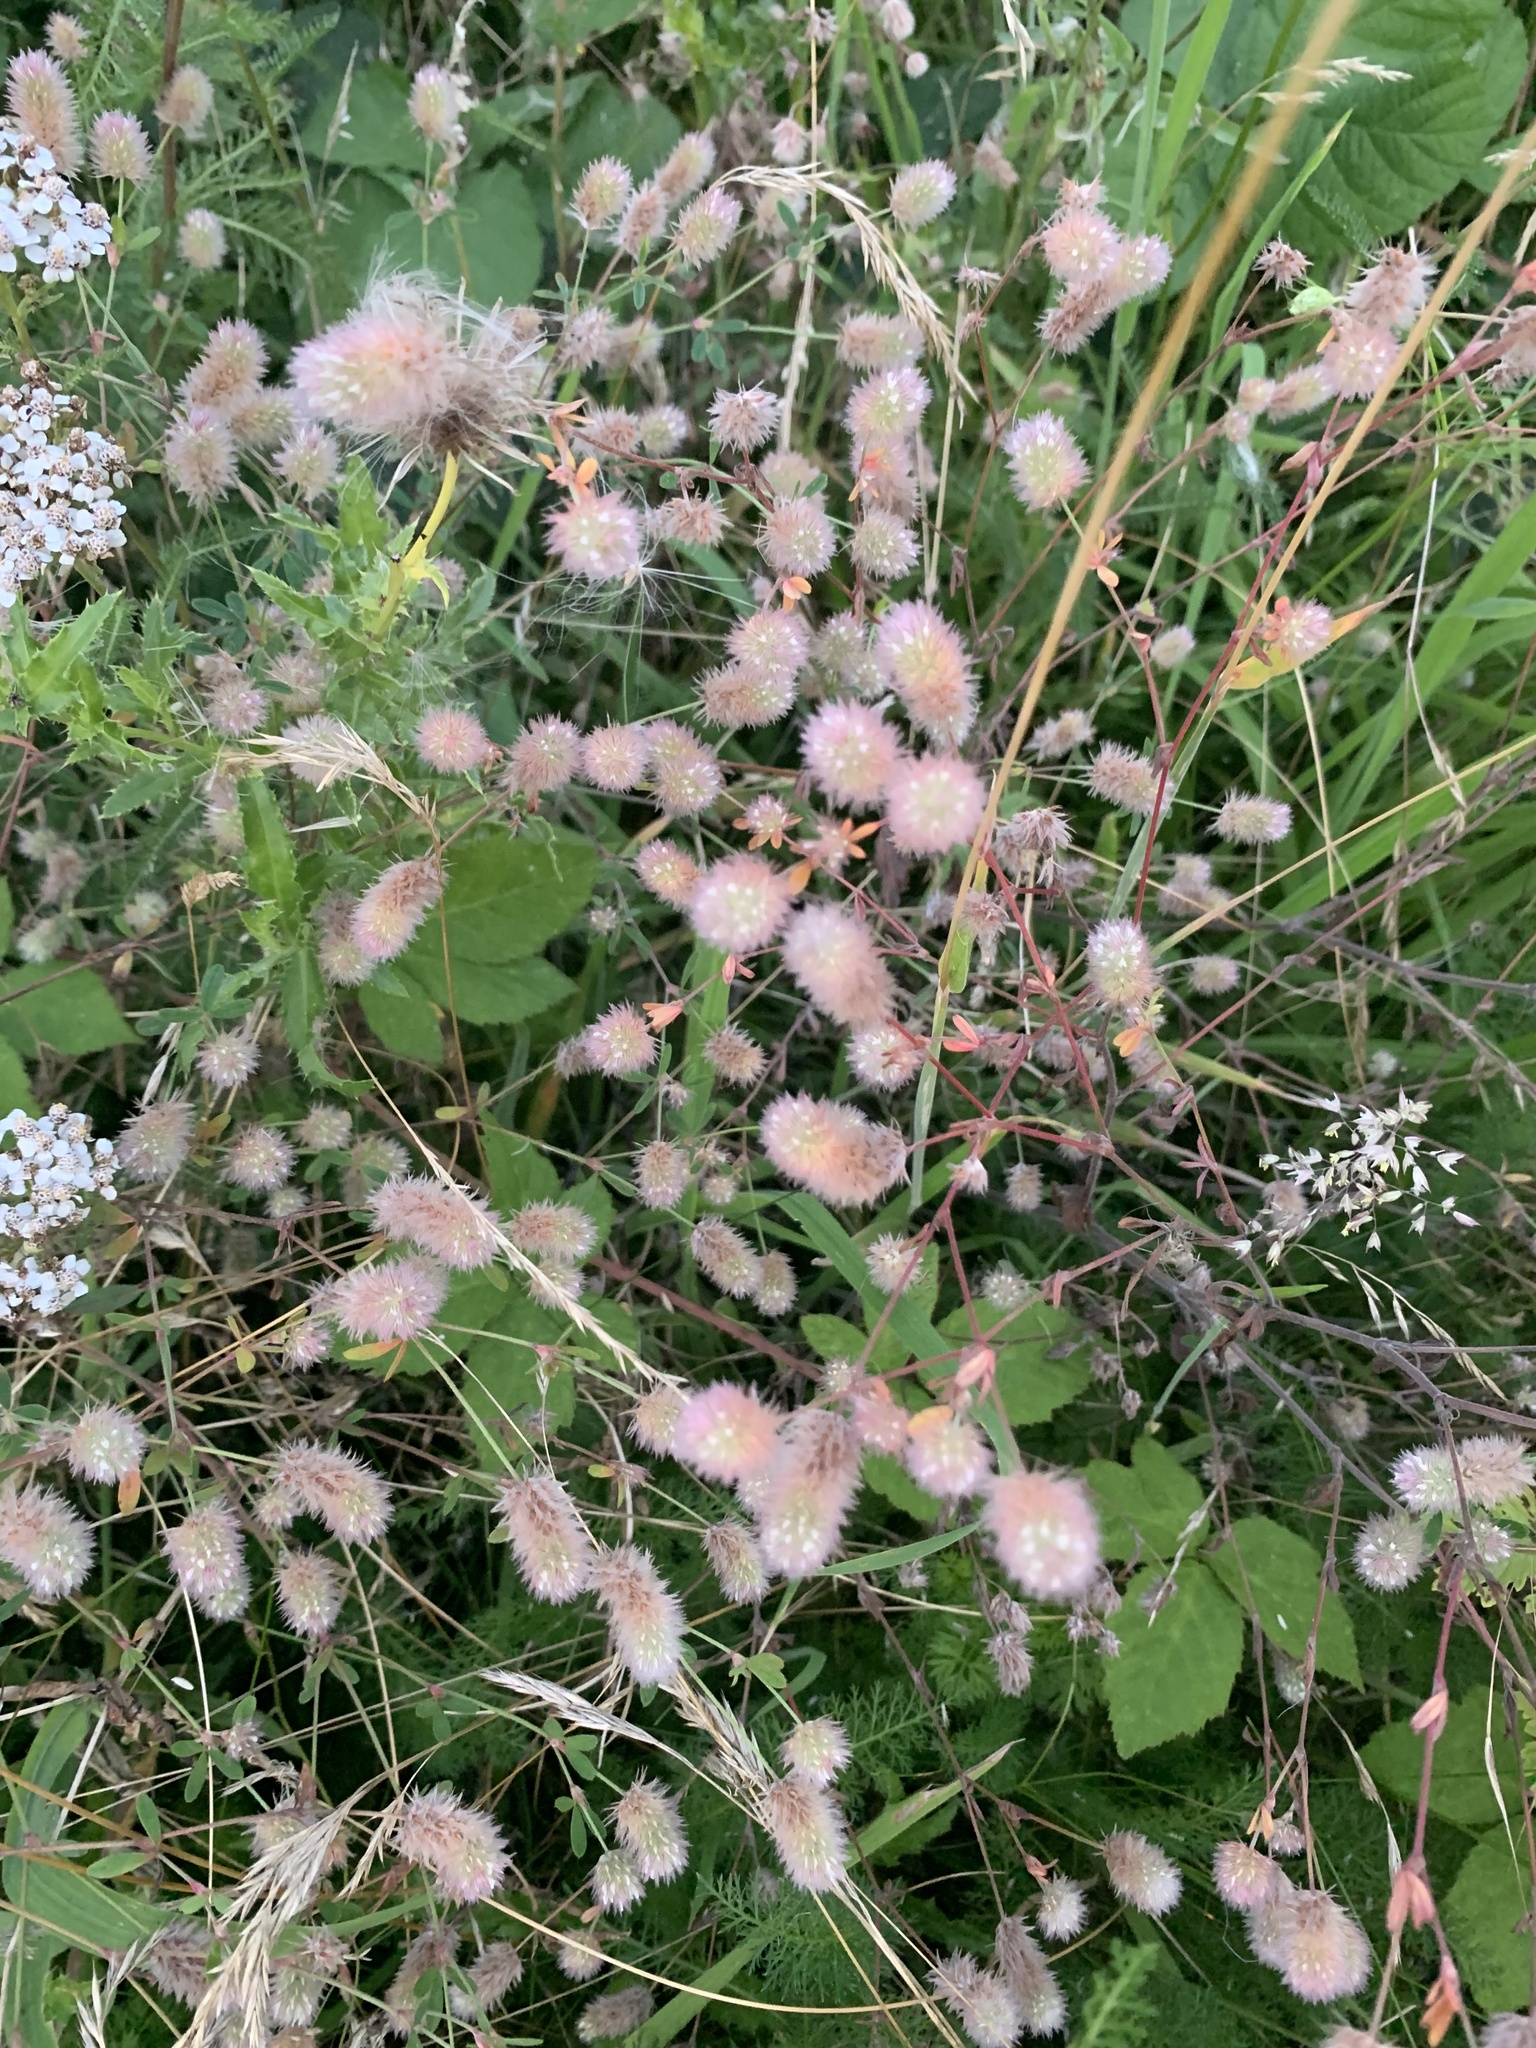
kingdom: Plantae
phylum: Tracheophyta
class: Magnoliopsida
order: Fabales
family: Fabaceae
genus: Trifolium
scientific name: Trifolium arvense
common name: Hare's-foot clover
